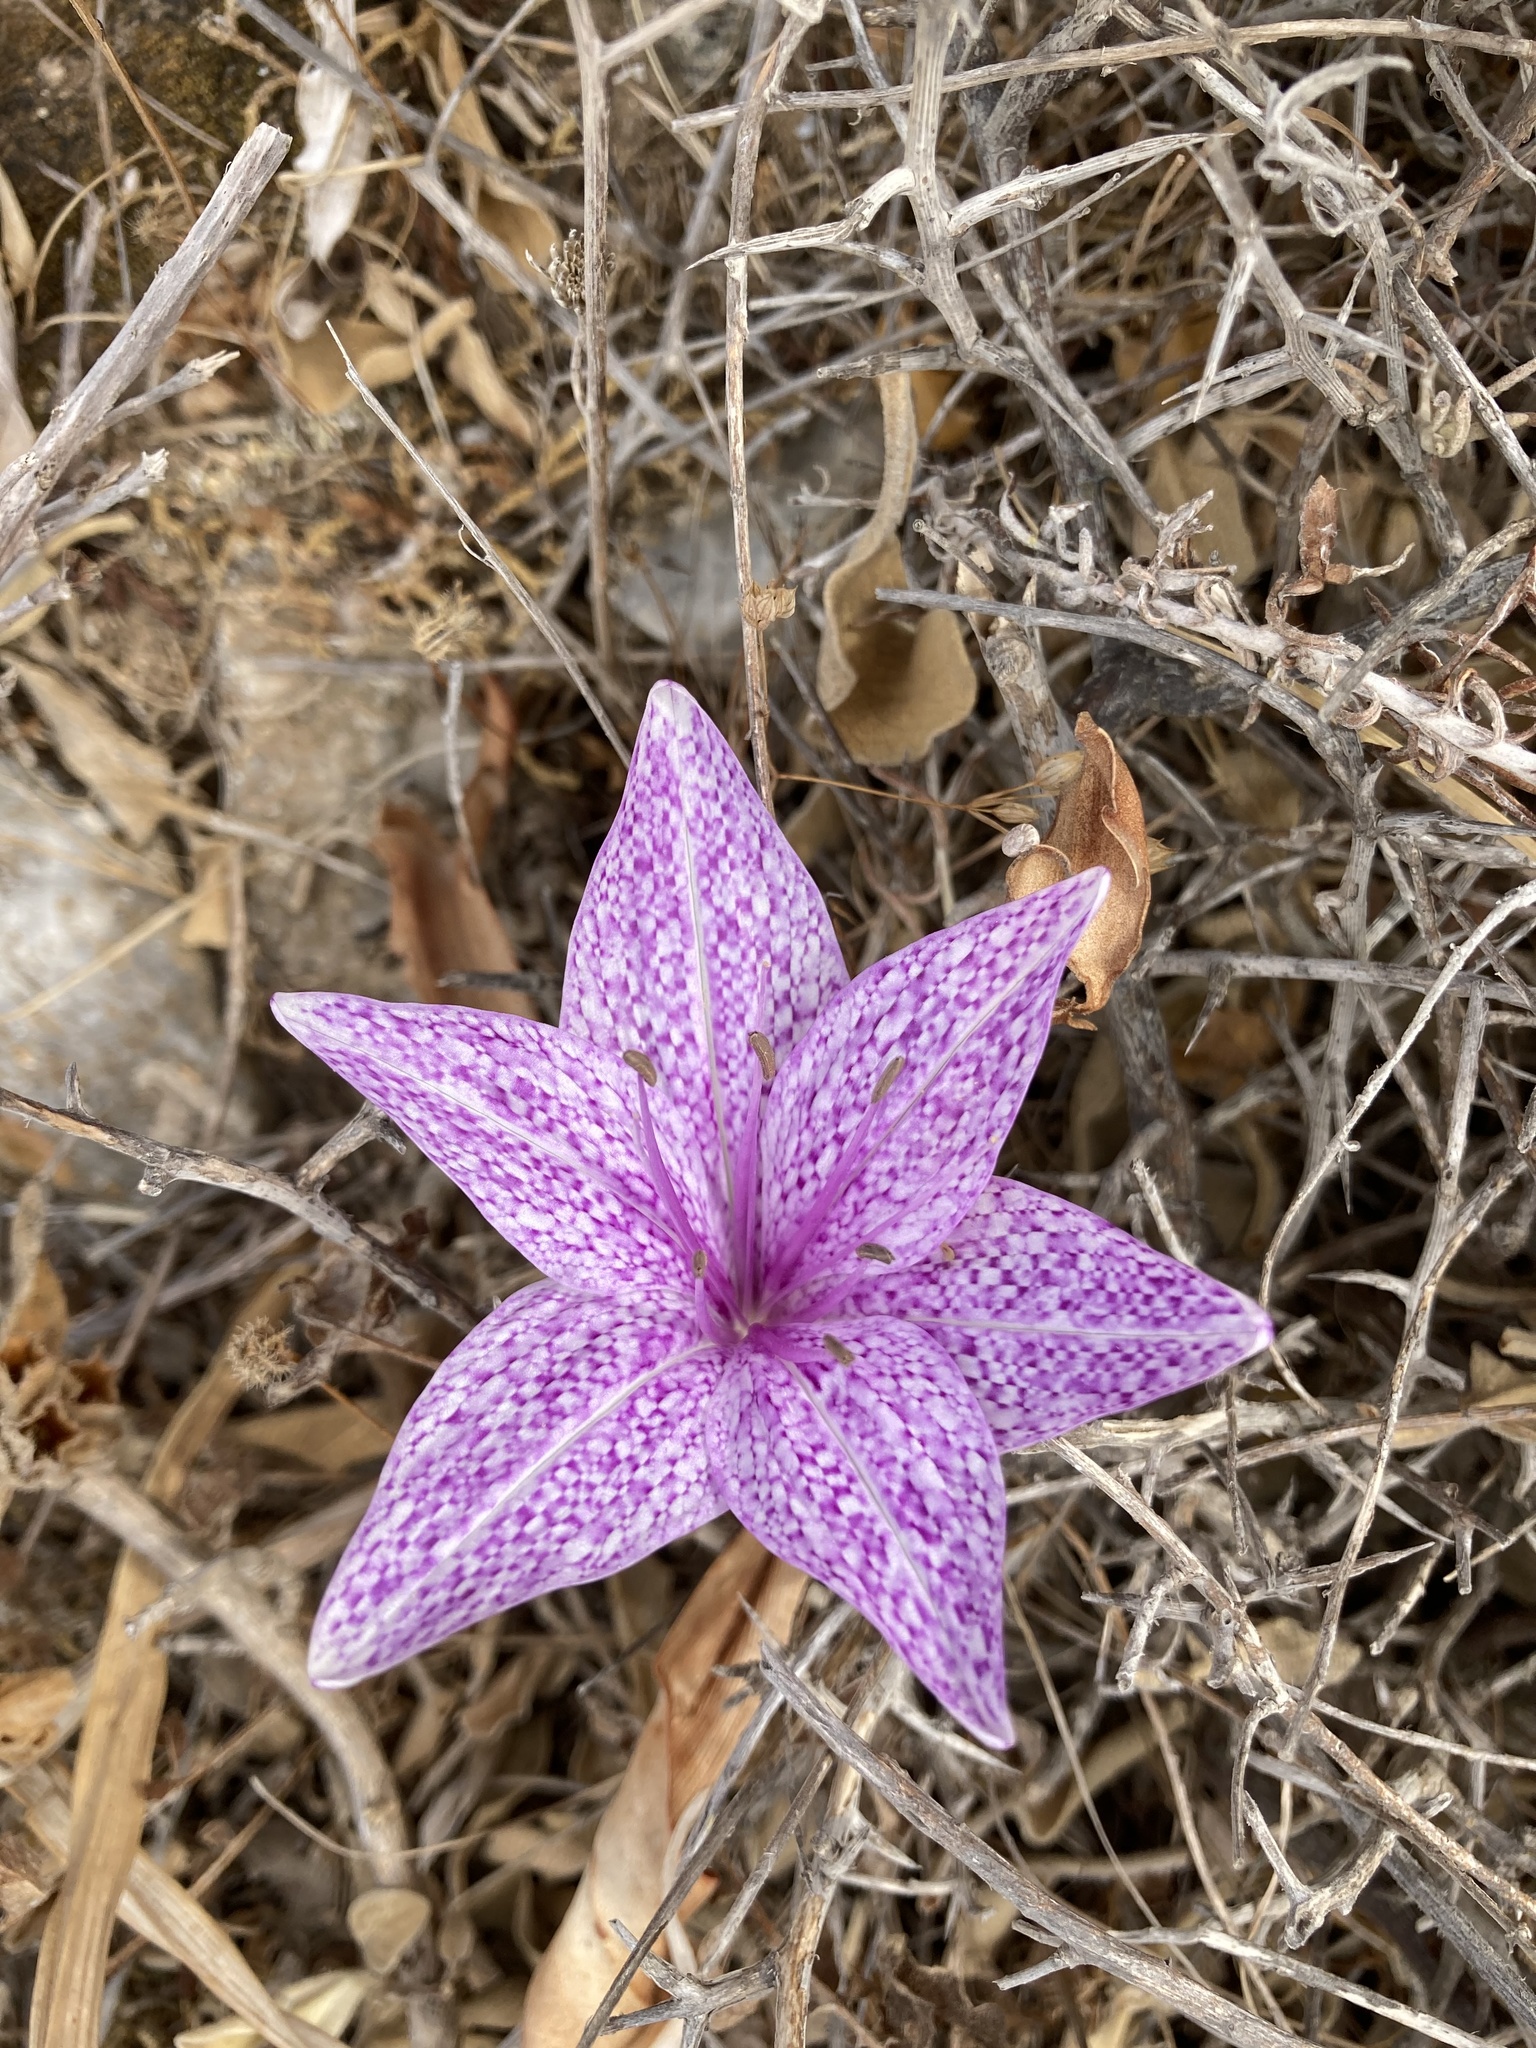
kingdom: Plantae
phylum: Tracheophyta
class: Liliopsida
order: Liliales
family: Colchicaceae
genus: Colchicum
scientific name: Colchicum variegatum
